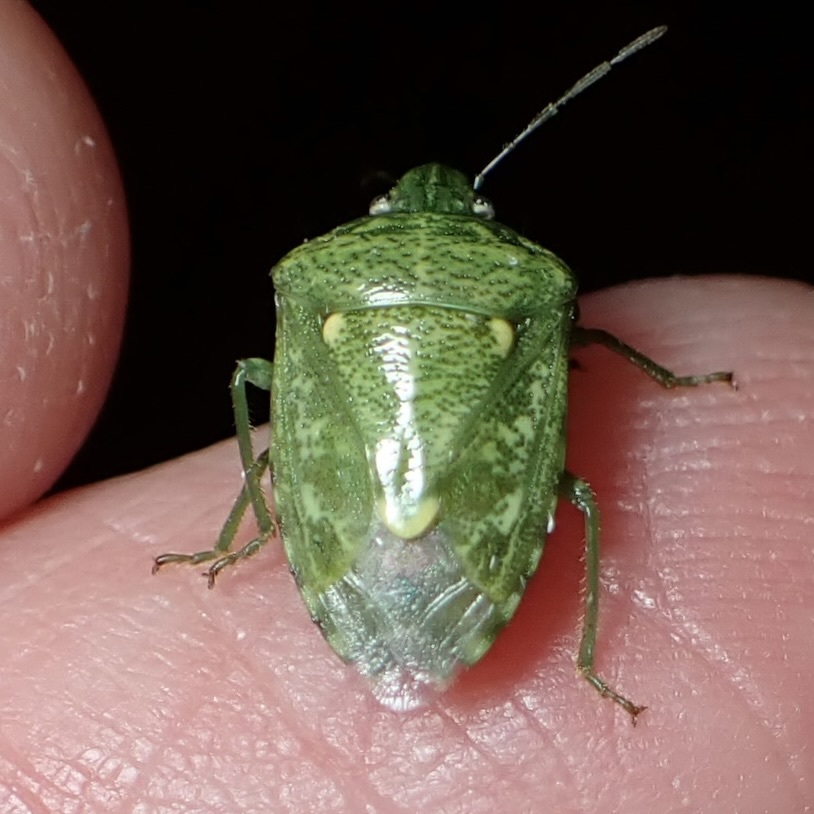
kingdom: Animalia
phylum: Arthropoda
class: Insecta
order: Hemiptera
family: Pentatomidae
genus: Banasa
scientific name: Banasa euchlora
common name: Cedar berry bug
